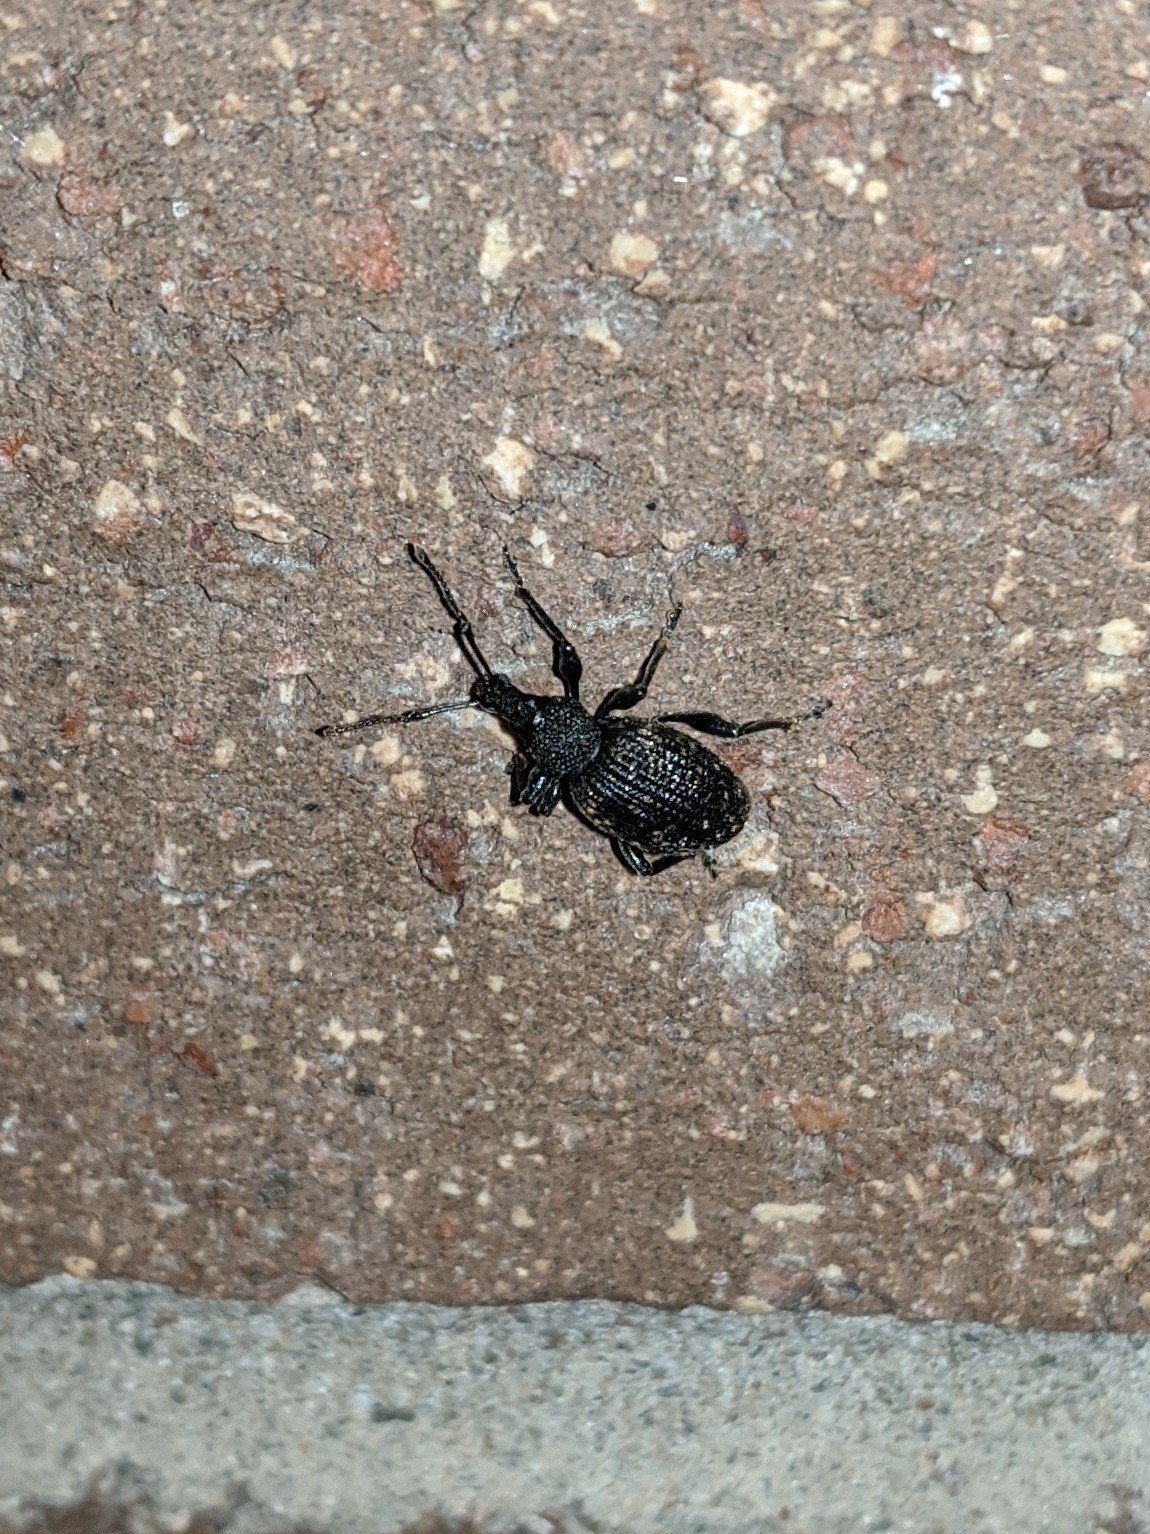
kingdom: Animalia
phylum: Arthropoda
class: Insecta
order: Coleoptera
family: Curculionidae
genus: Otiorhynchus
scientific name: Otiorhynchus sulcatus
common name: Black vine weevil
